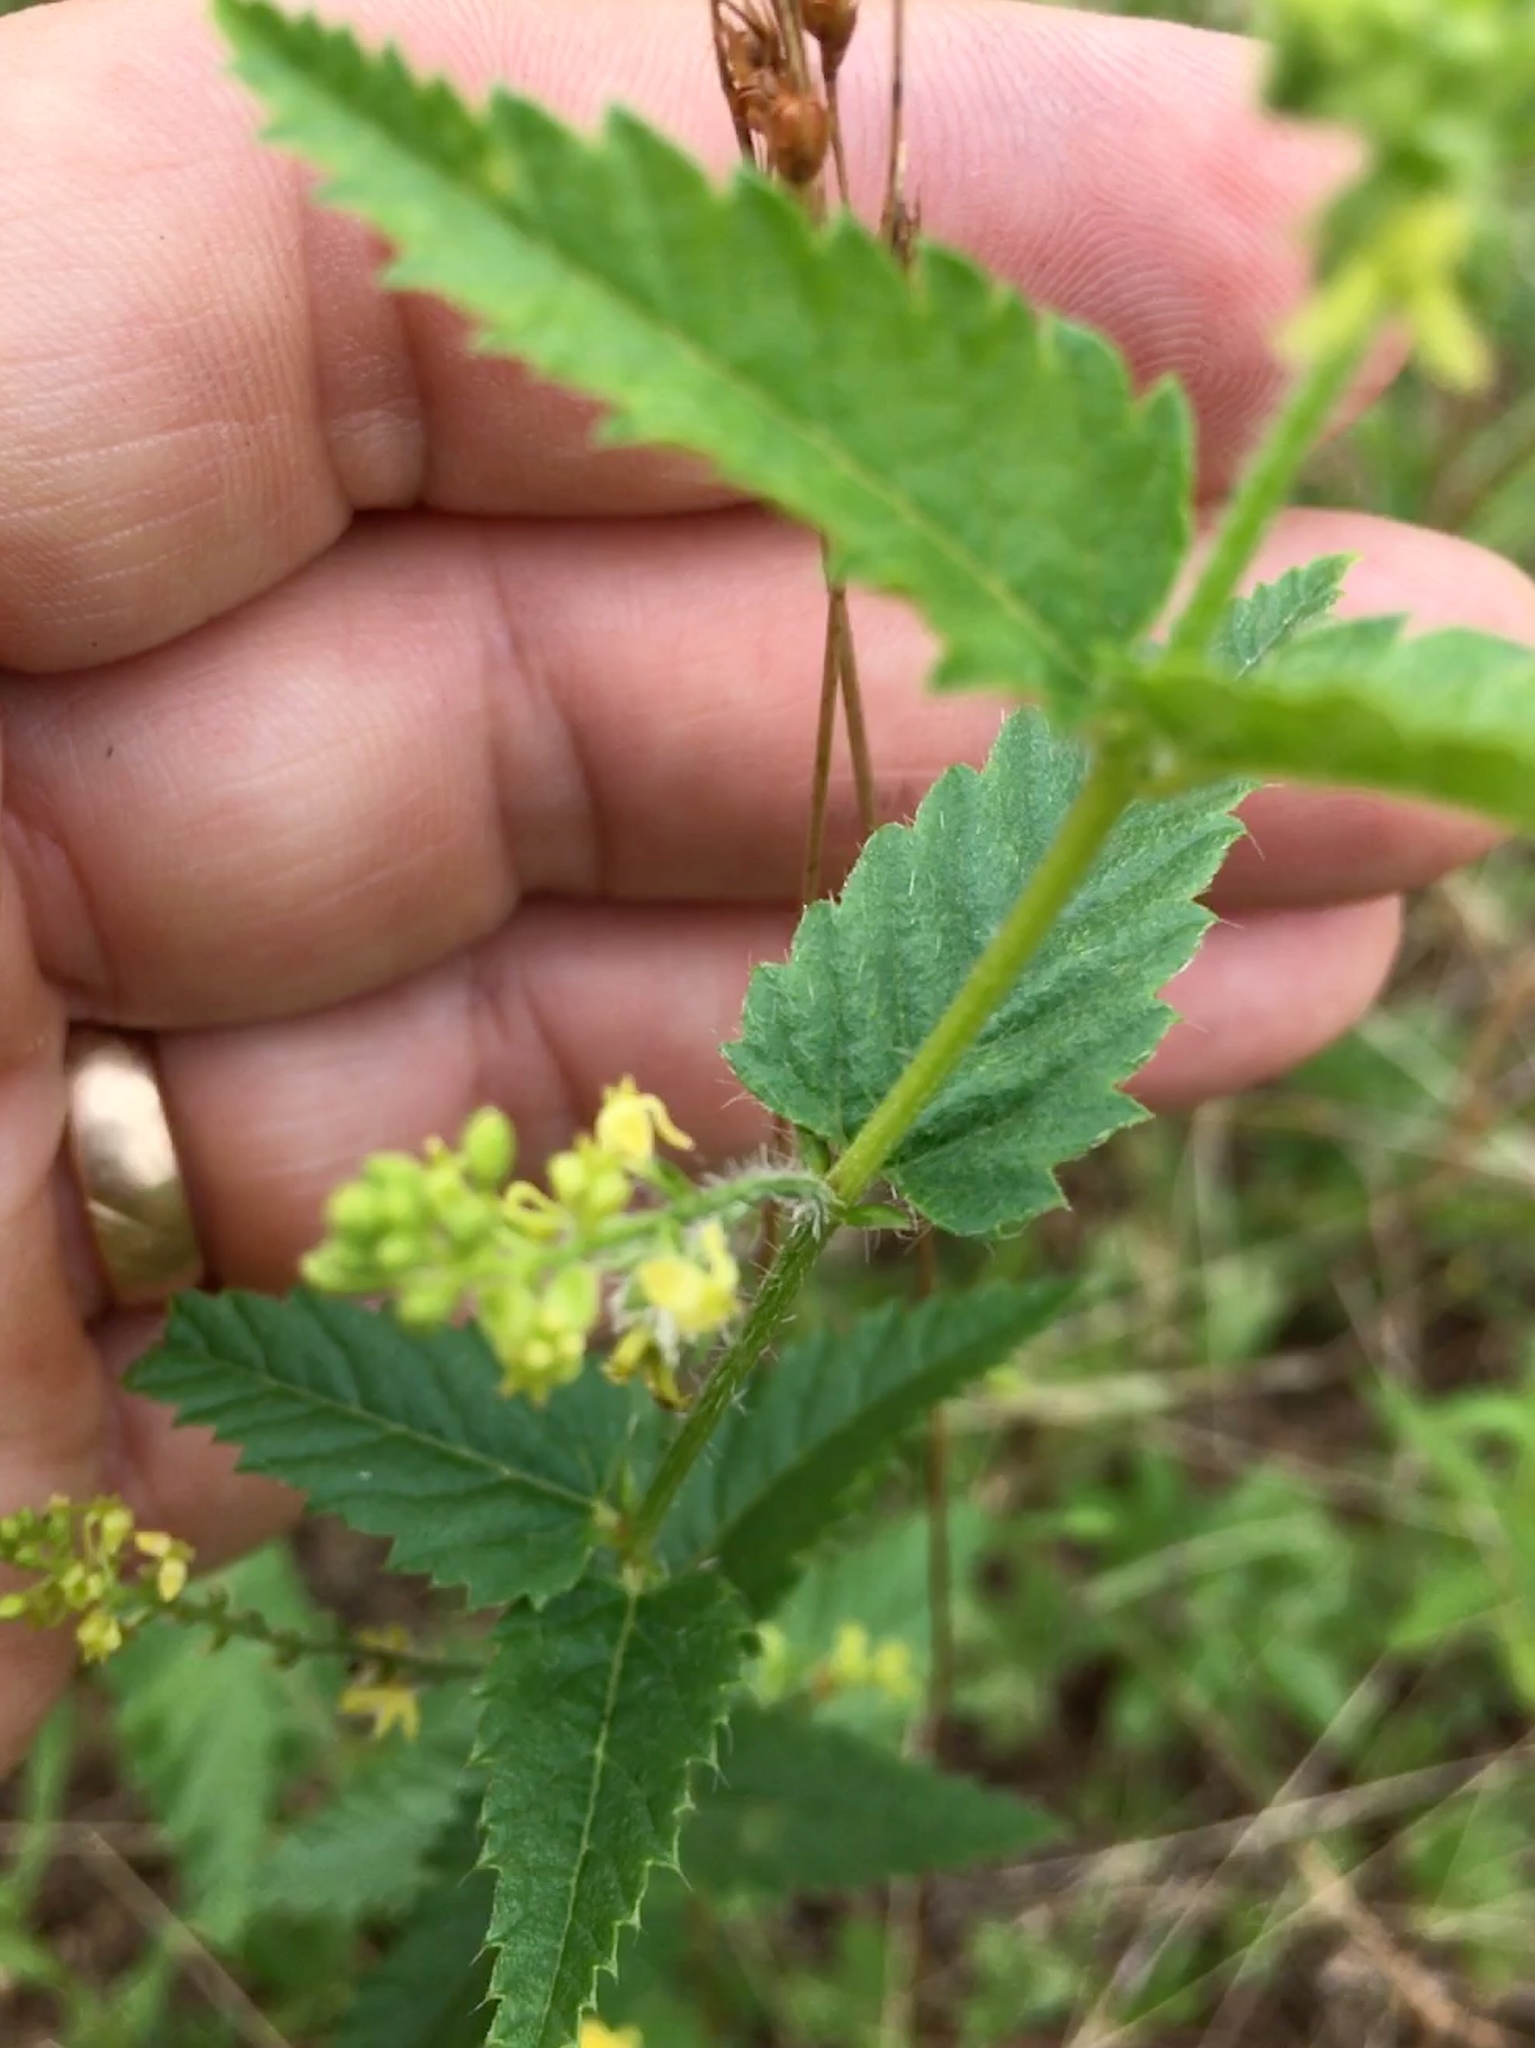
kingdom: Plantae
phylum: Tracheophyta
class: Magnoliopsida
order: Malpighiales
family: Euphorbiaceae
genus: Tragia
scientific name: Tragia urticifolia
